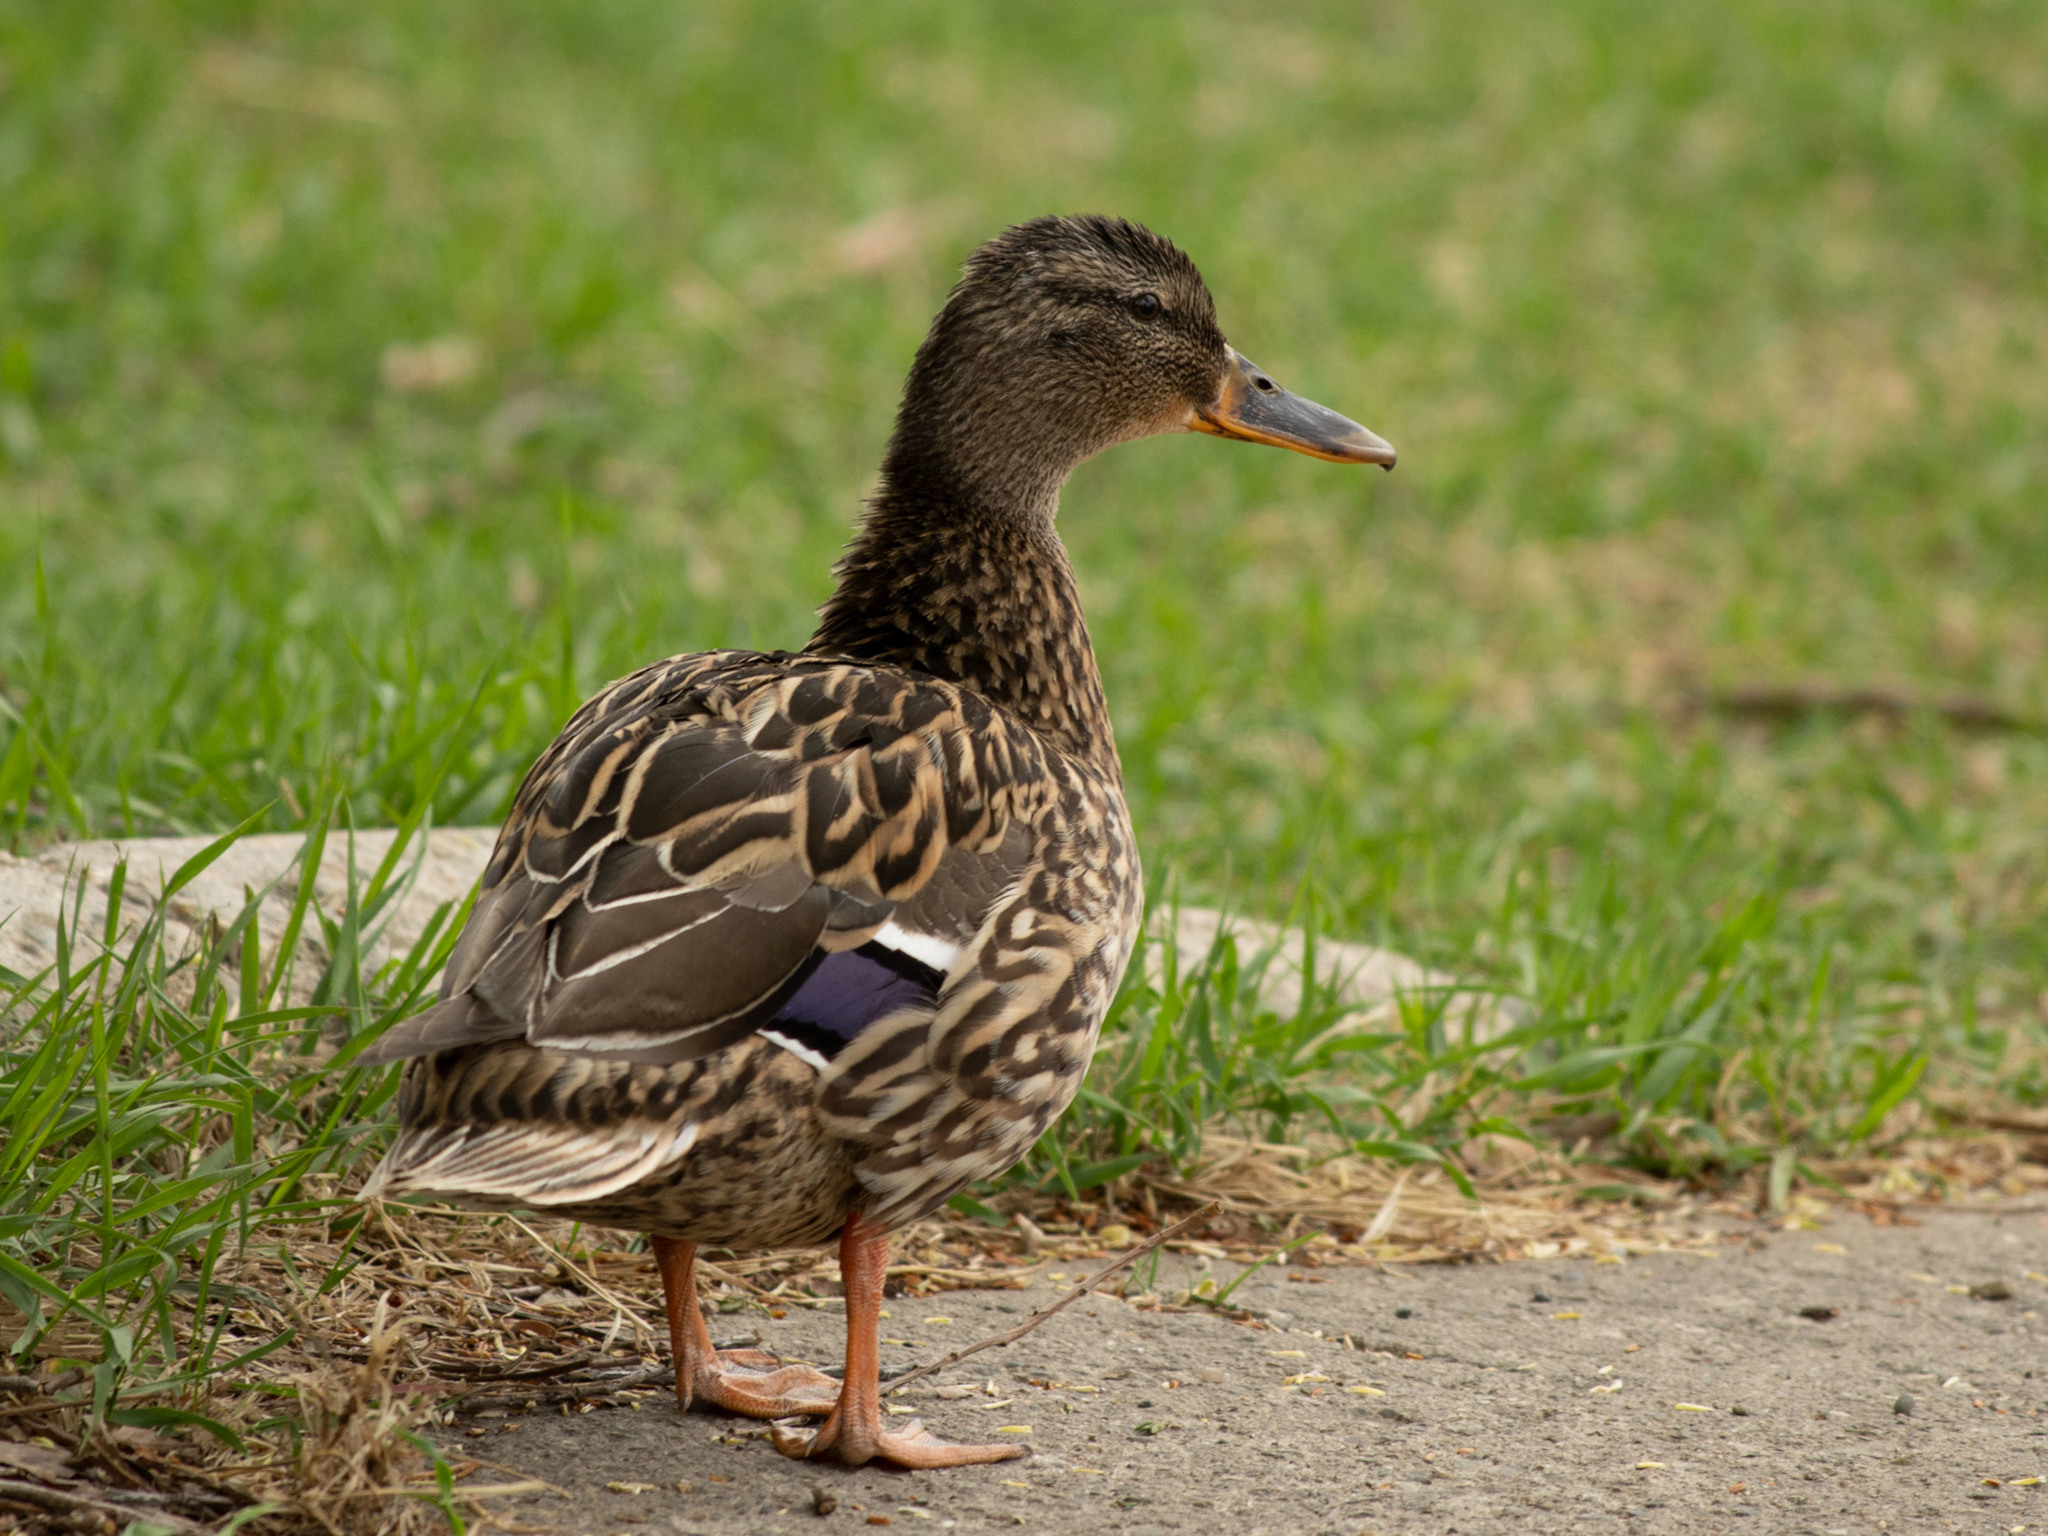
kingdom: Animalia
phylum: Chordata
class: Aves
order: Anseriformes
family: Anatidae
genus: Anas
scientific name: Anas platyrhynchos
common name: Mallard
